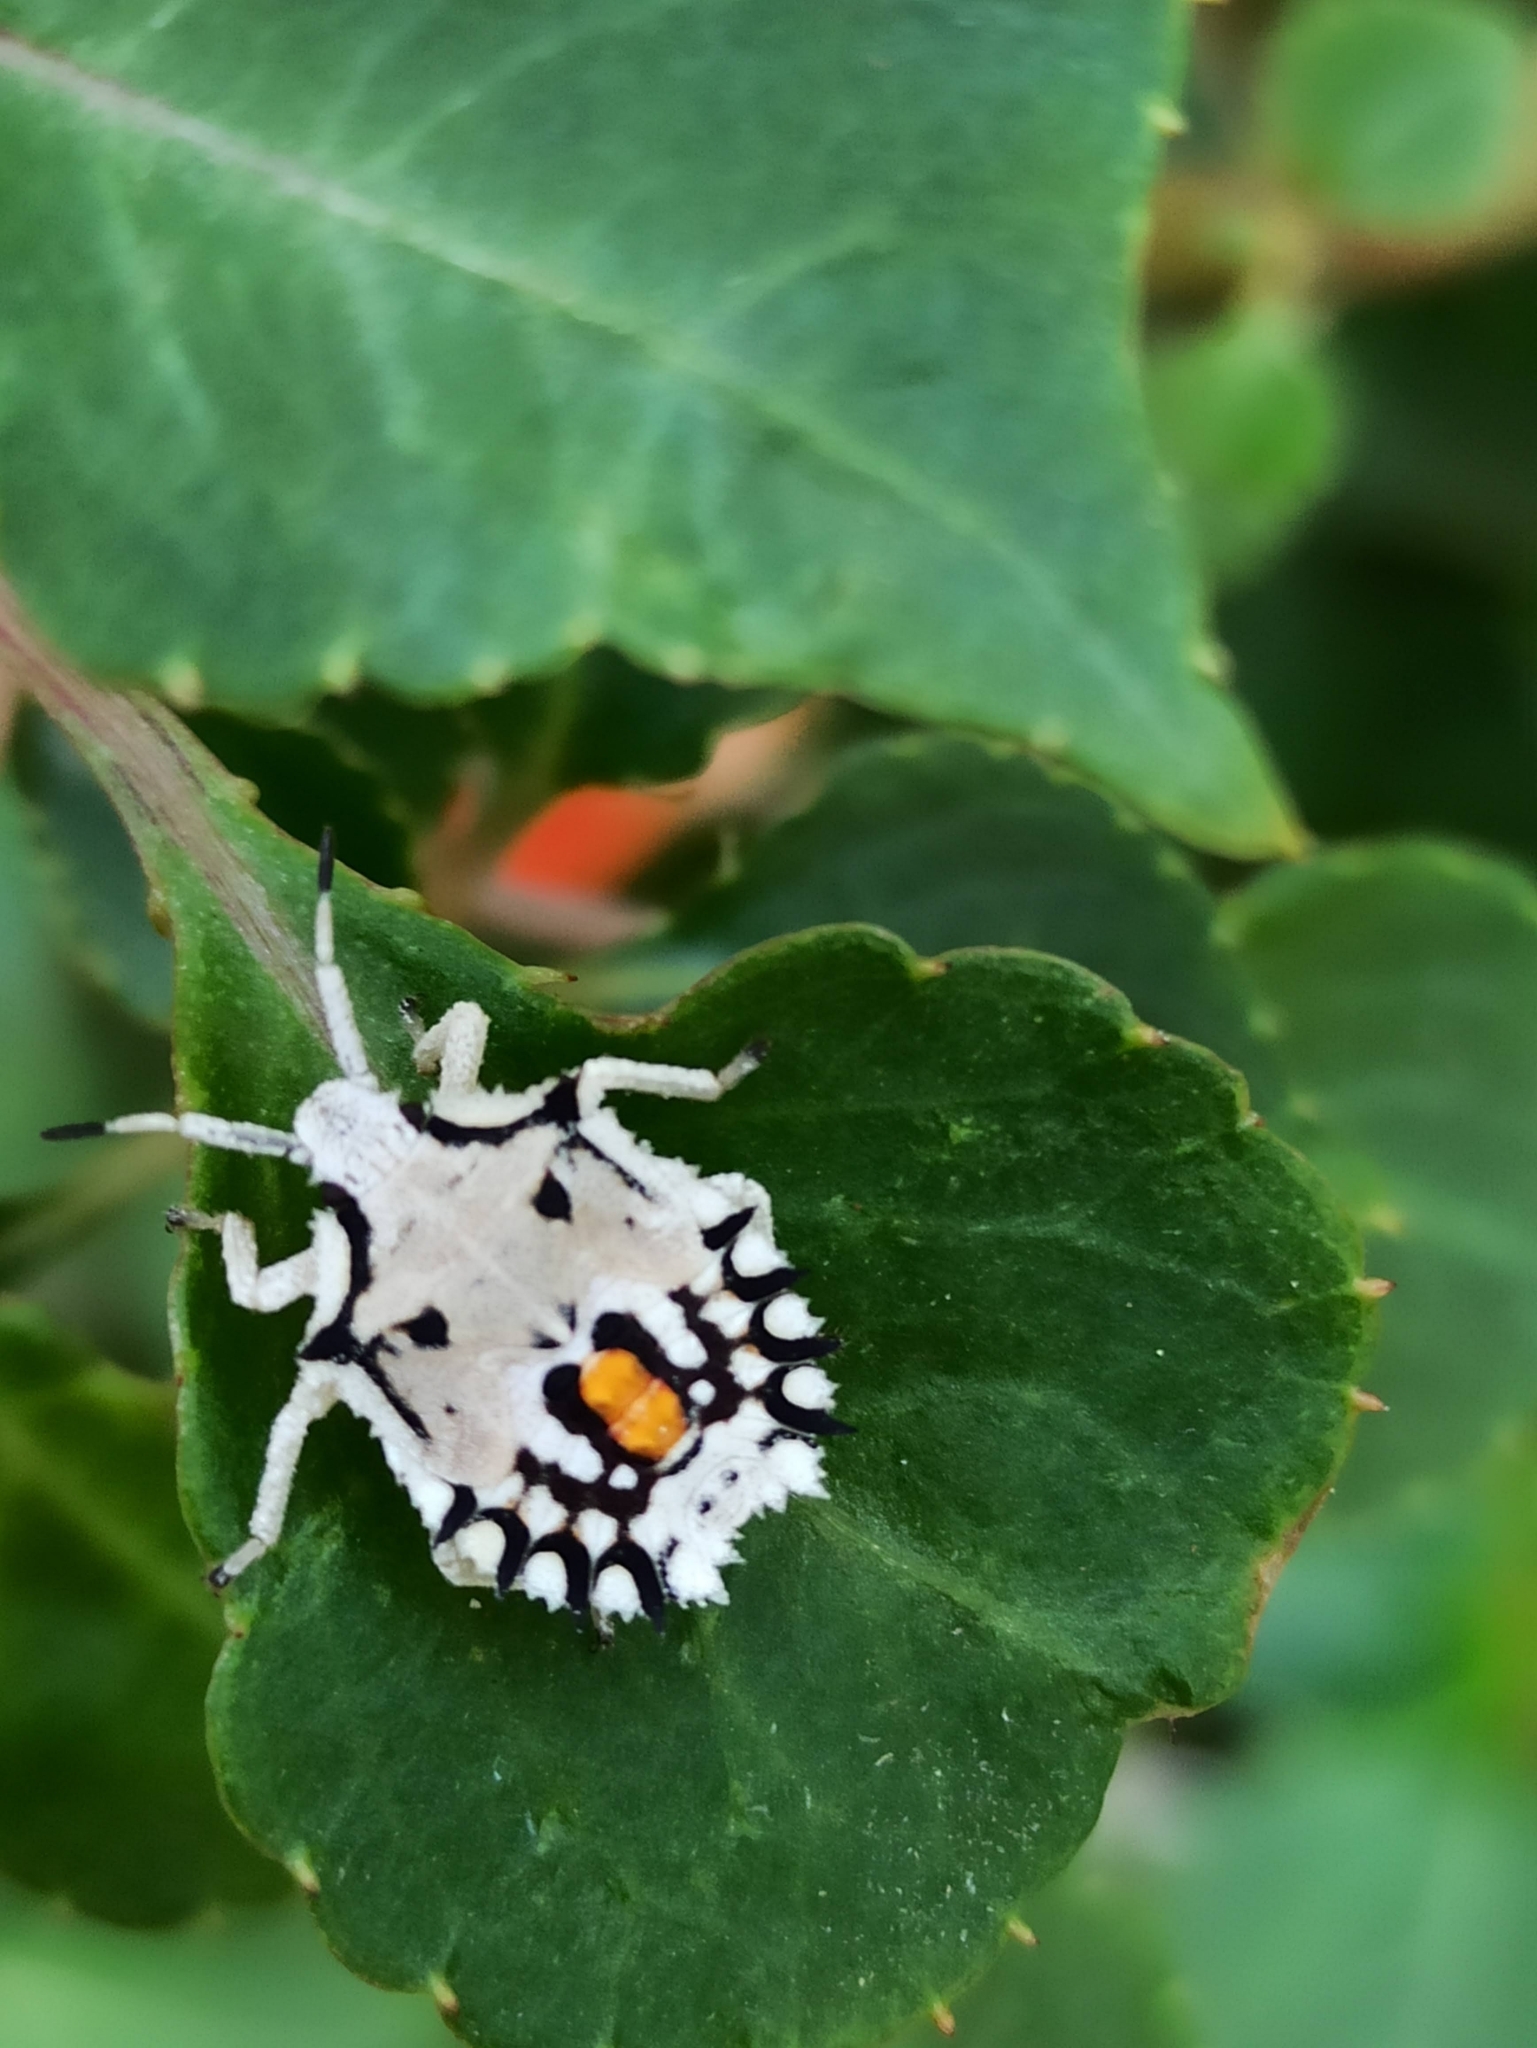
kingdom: Animalia
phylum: Arthropoda
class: Insecta
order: Hemiptera
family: Pentatomidae
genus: Degonetus
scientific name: Degonetus serratus
